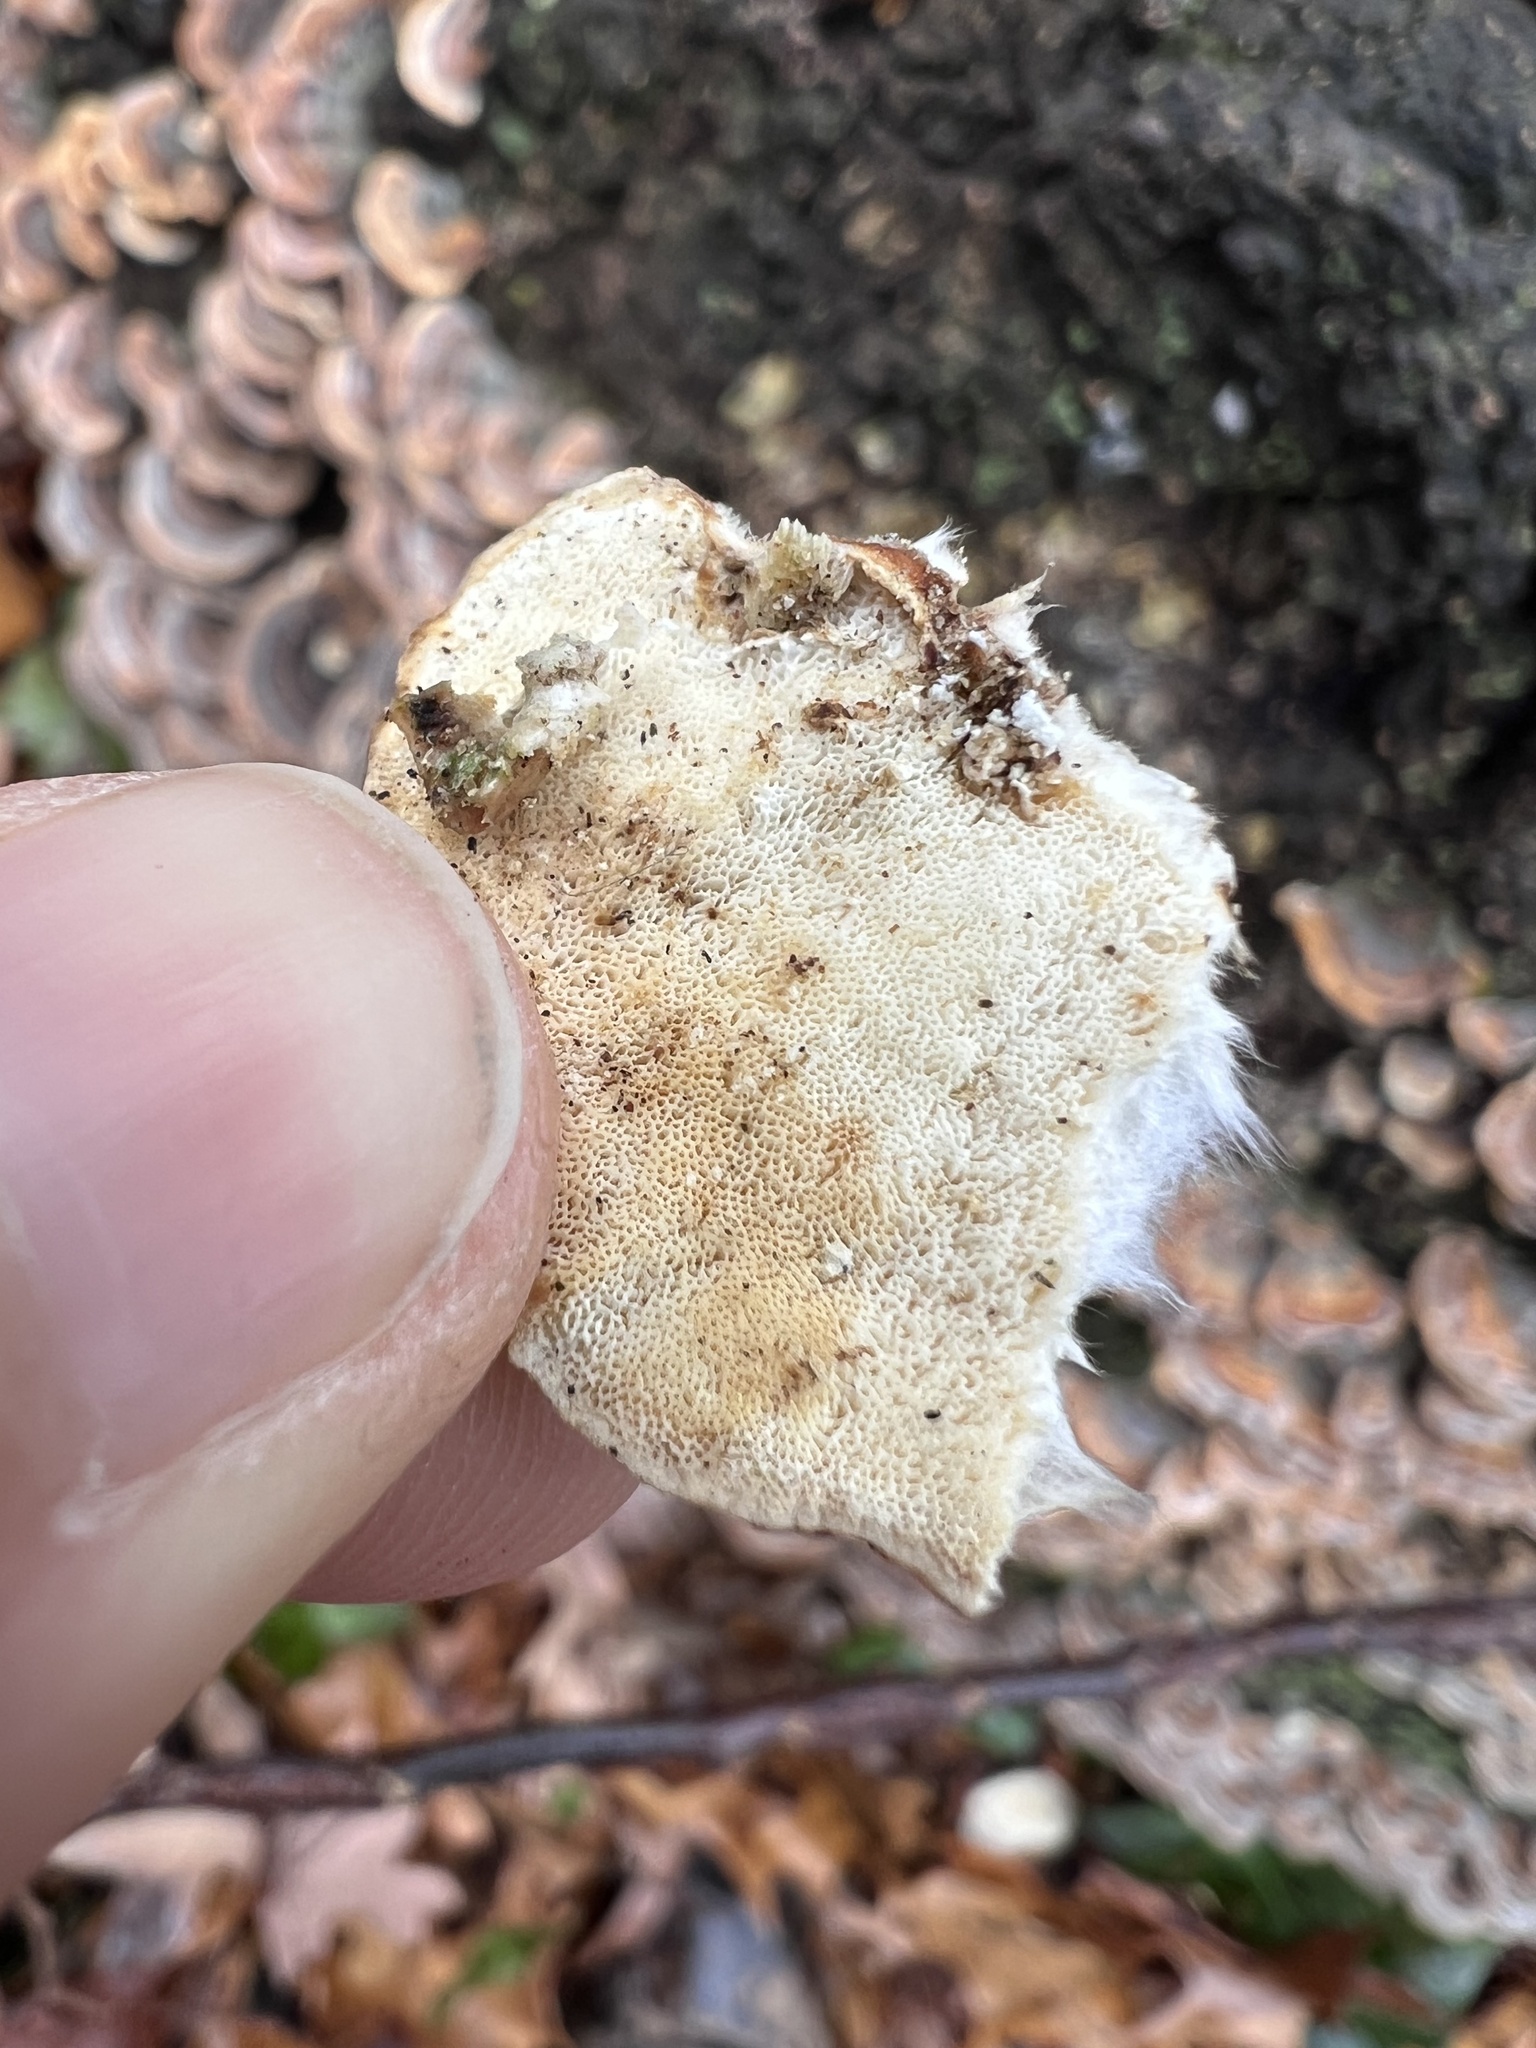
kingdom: Fungi
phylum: Basidiomycota
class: Agaricomycetes
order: Polyporales
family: Polyporaceae
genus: Trametes
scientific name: Trametes versicolor
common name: Turkeytail
